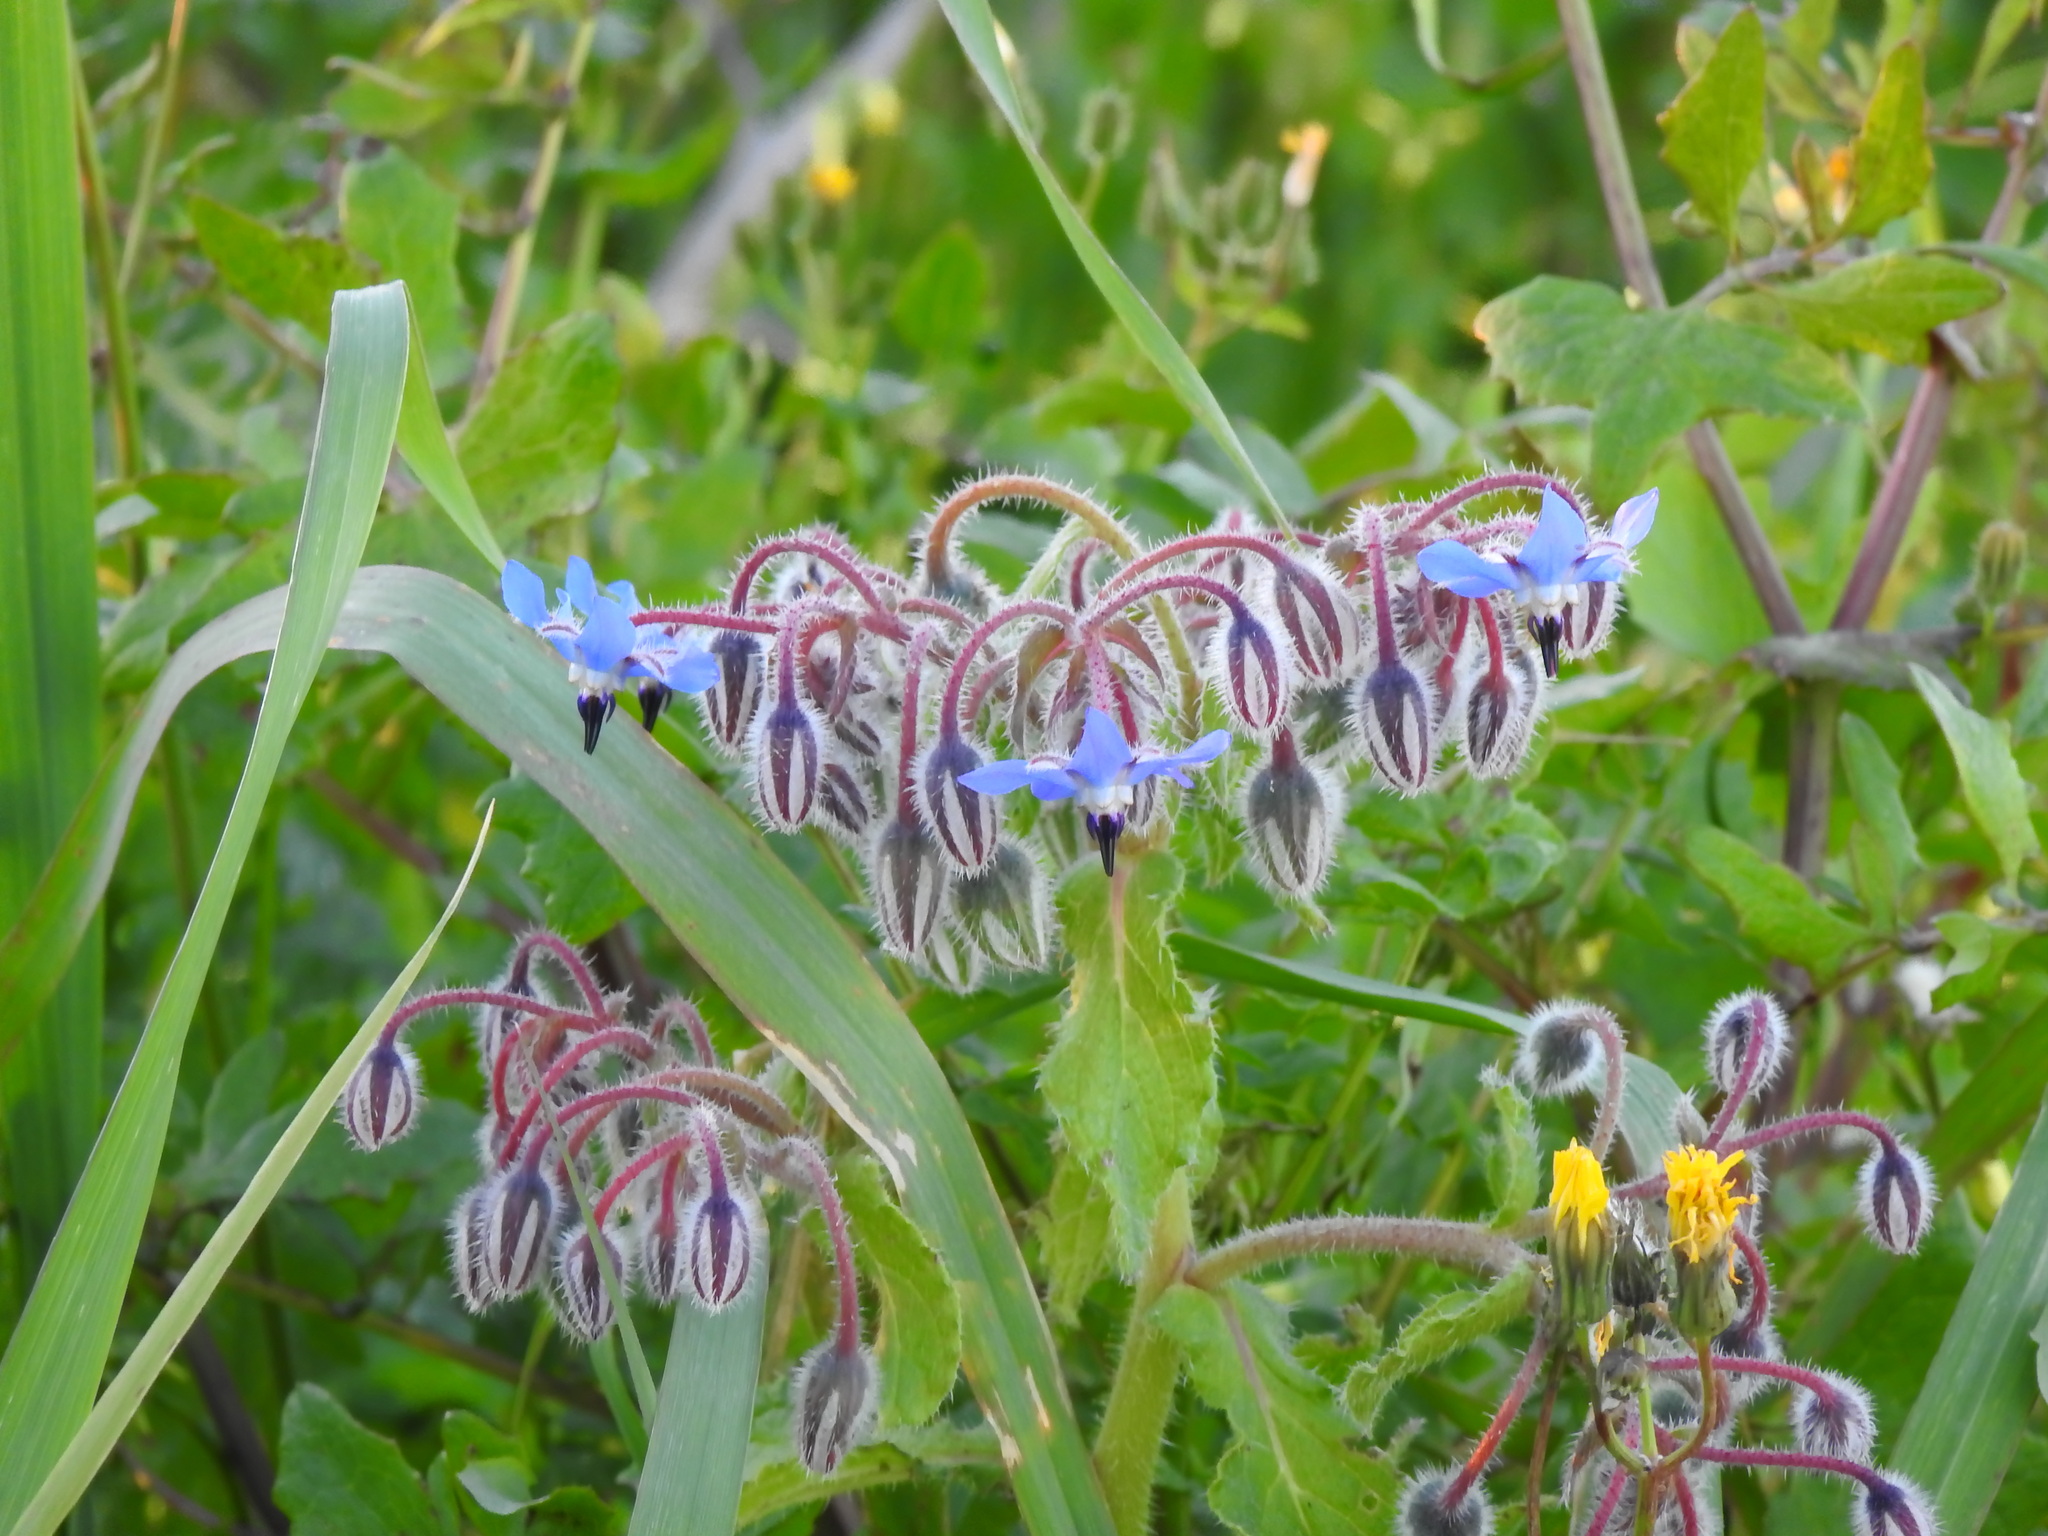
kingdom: Plantae
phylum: Tracheophyta
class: Magnoliopsida
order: Boraginales
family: Boraginaceae
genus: Borago
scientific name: Borago officinalis
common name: Borage
